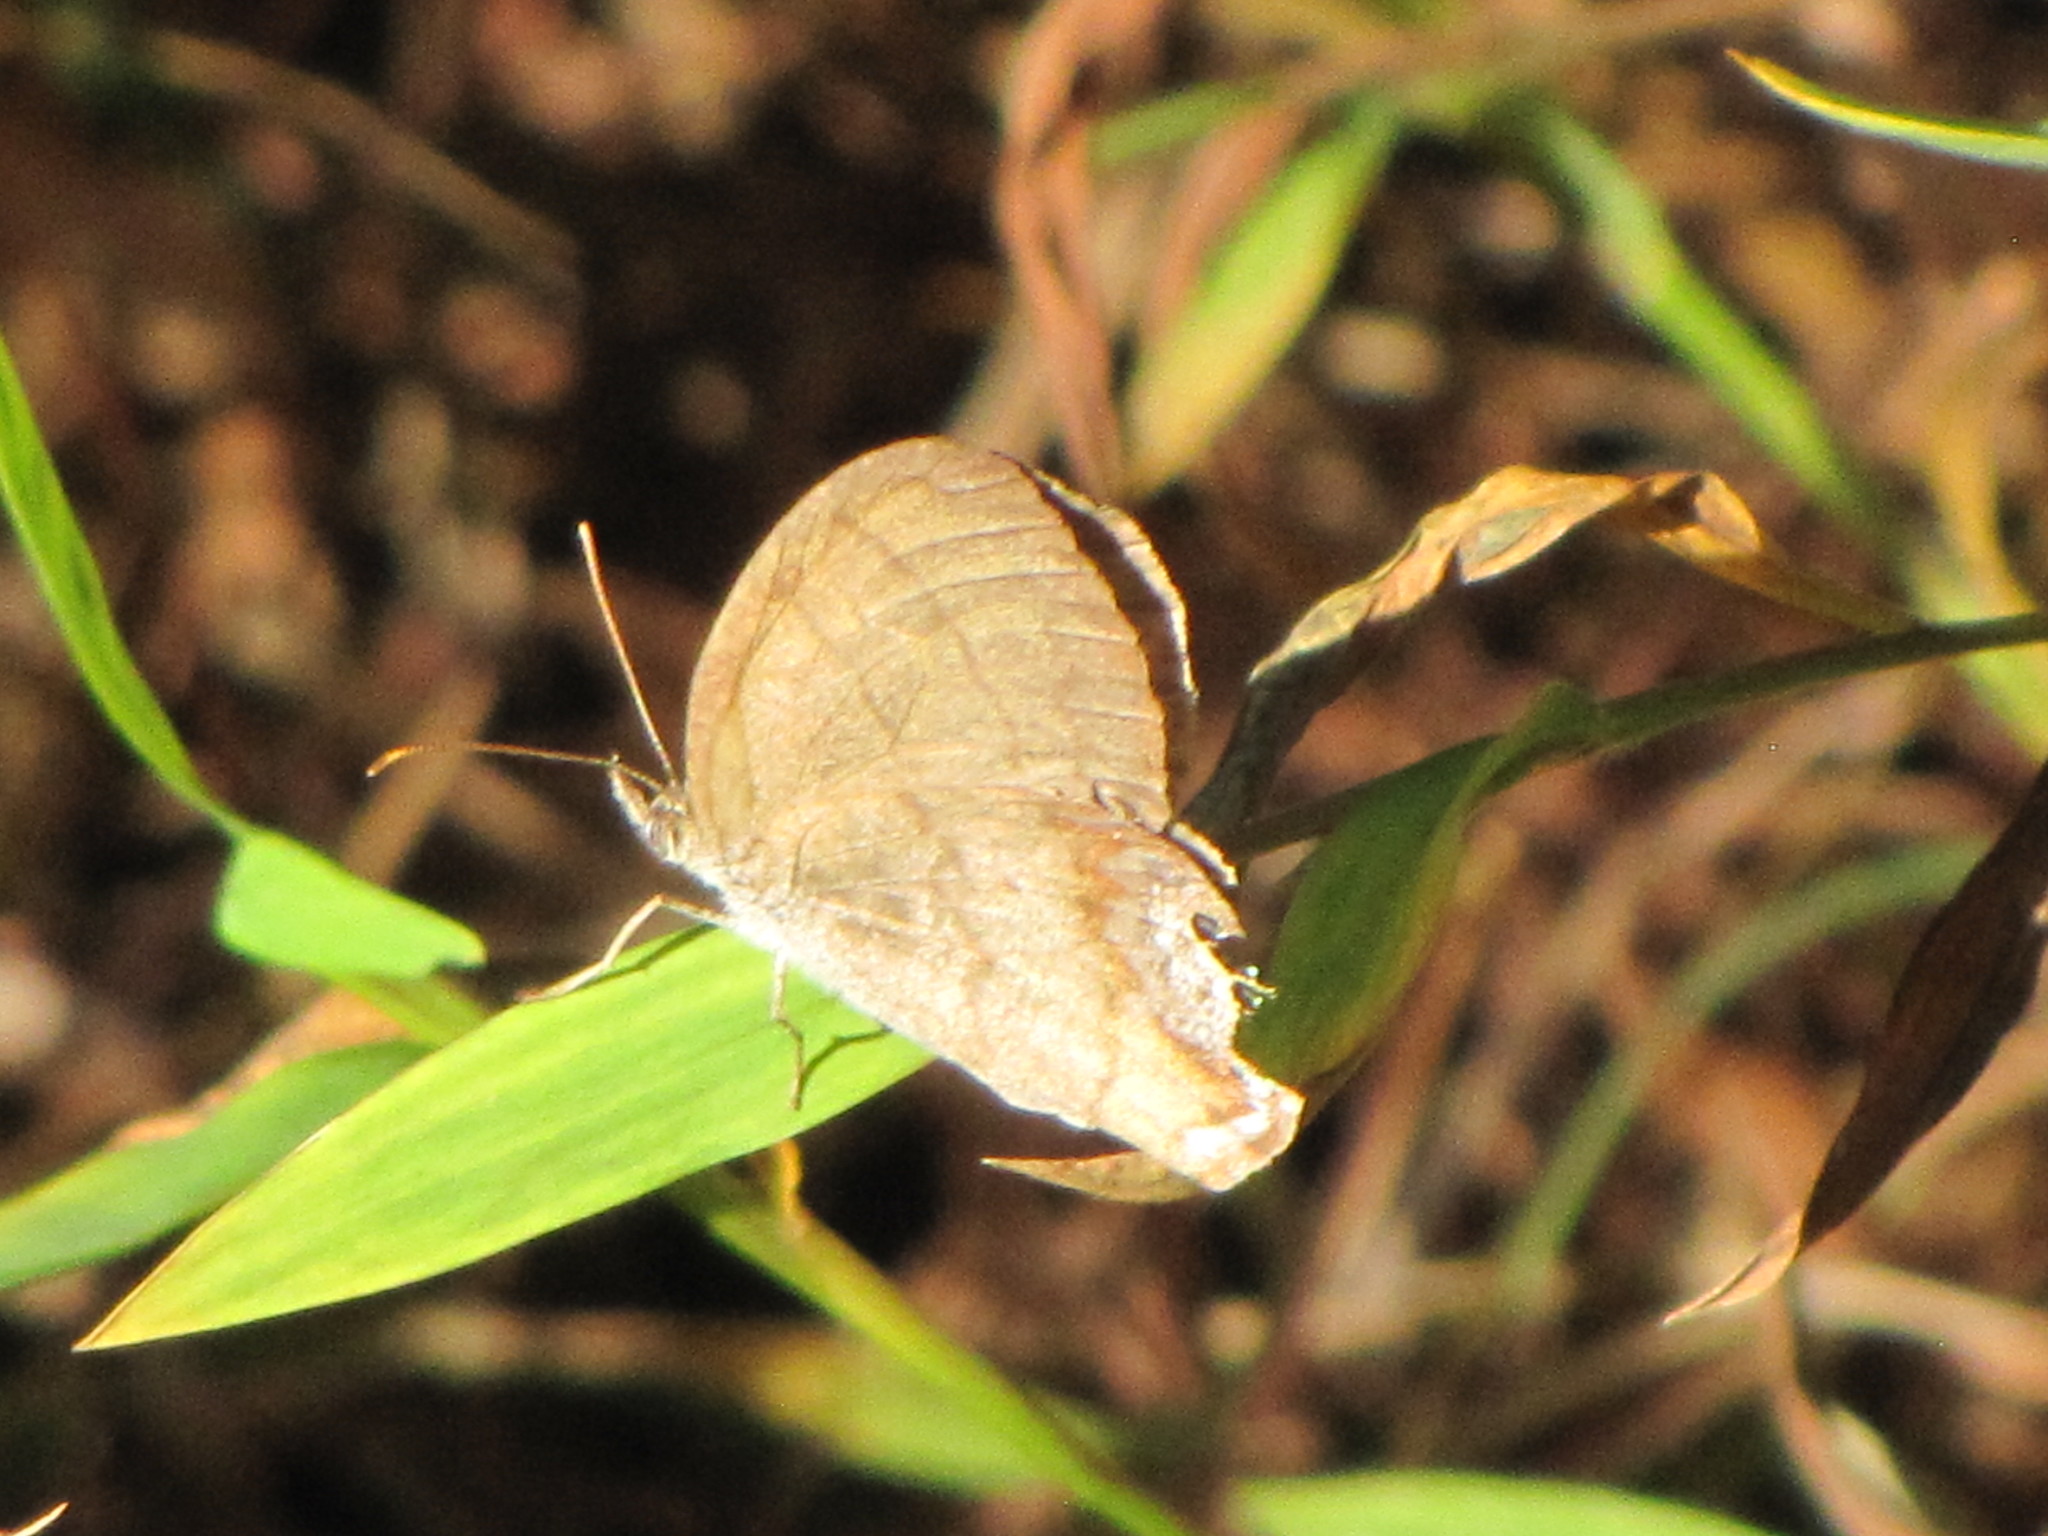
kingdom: Animalia
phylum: Arthropoda
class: Insecta
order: Lepidoptera
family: Nymphalidae
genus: Euptychia
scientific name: Euptychia cornelius
